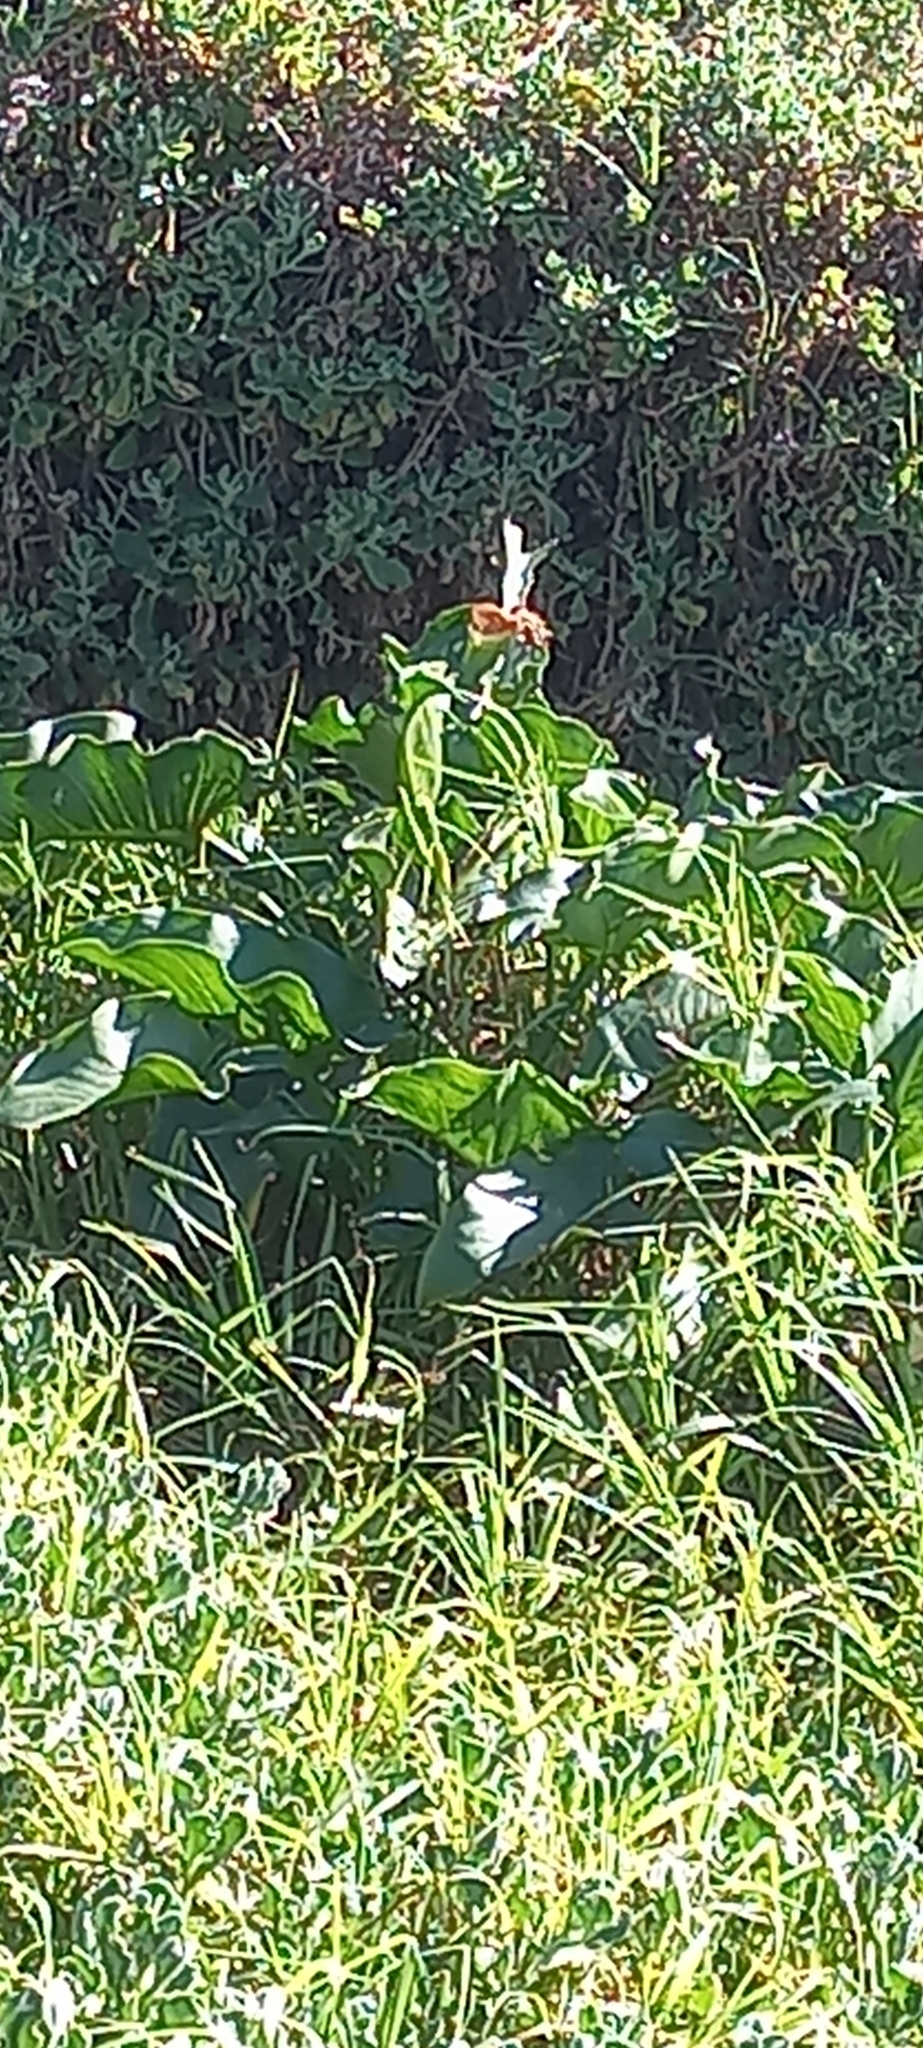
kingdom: Plantae
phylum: Tracheophyta
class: Liliopsida
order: Alismatales
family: Araceae
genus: Zantedeschia
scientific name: Zantedeschia aethiopica
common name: Altar-lily
